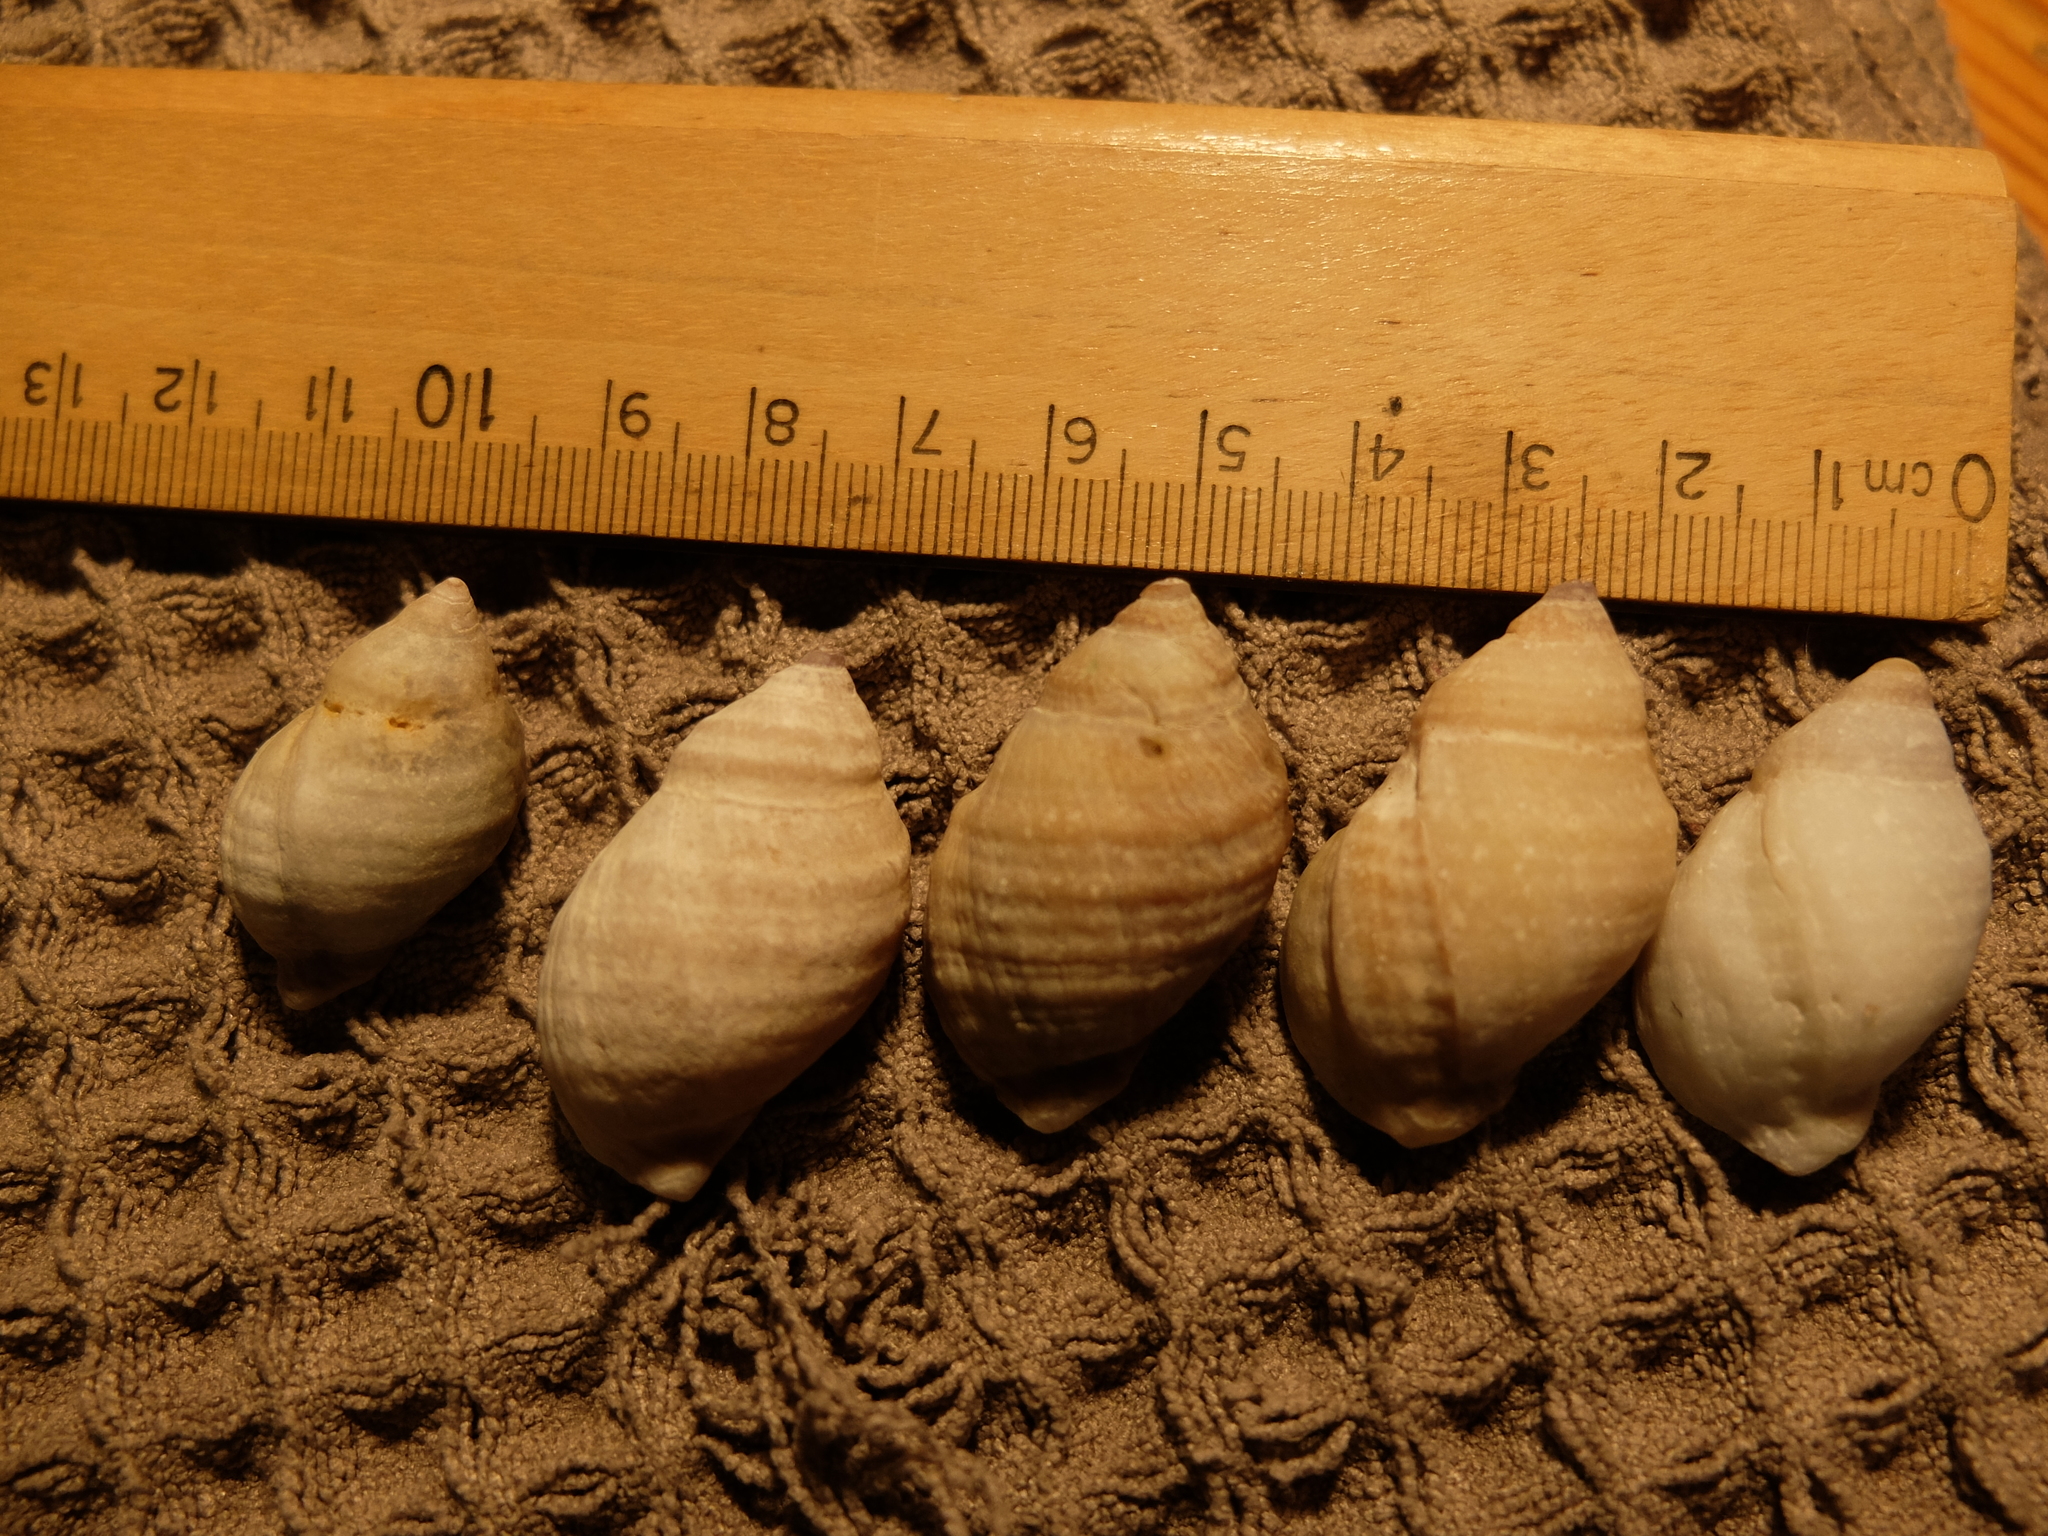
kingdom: Animalia
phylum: Mollusca
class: Gastropoda
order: Neogastropoda
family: Muricidae
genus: Nucella
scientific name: Nucella lapillus
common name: Dog whelk
